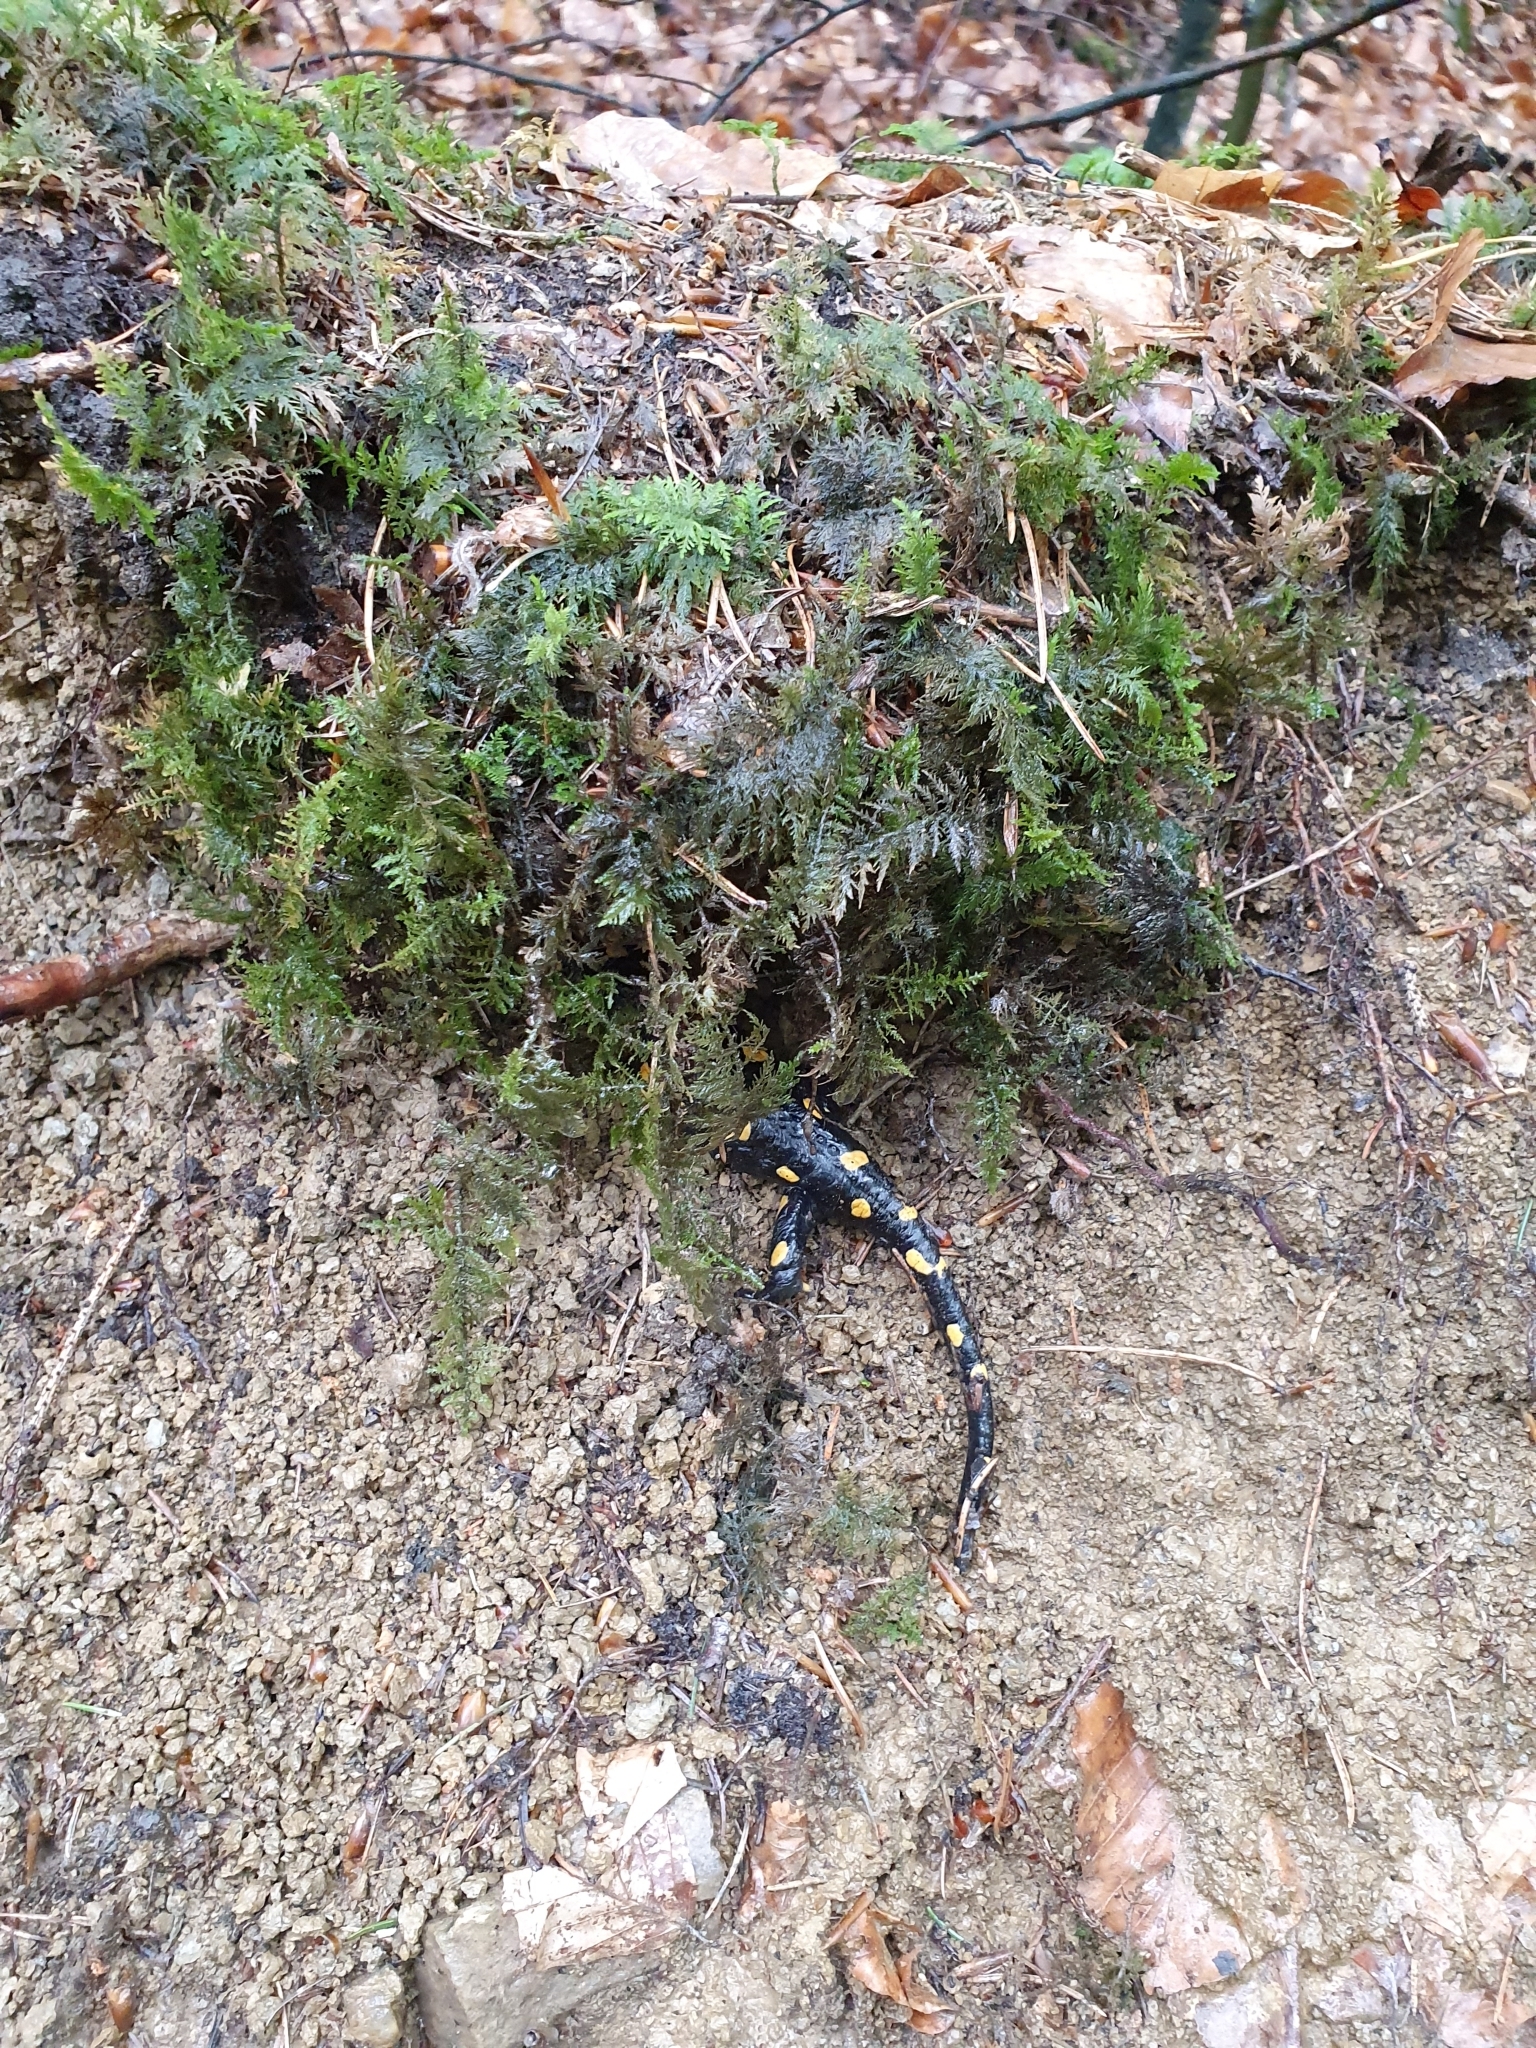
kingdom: Animalia
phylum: Chordata
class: Amphibia
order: Caudata
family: Salamandridae
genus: Salamandra
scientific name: Salamandra salamandra
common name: Fire salamander
